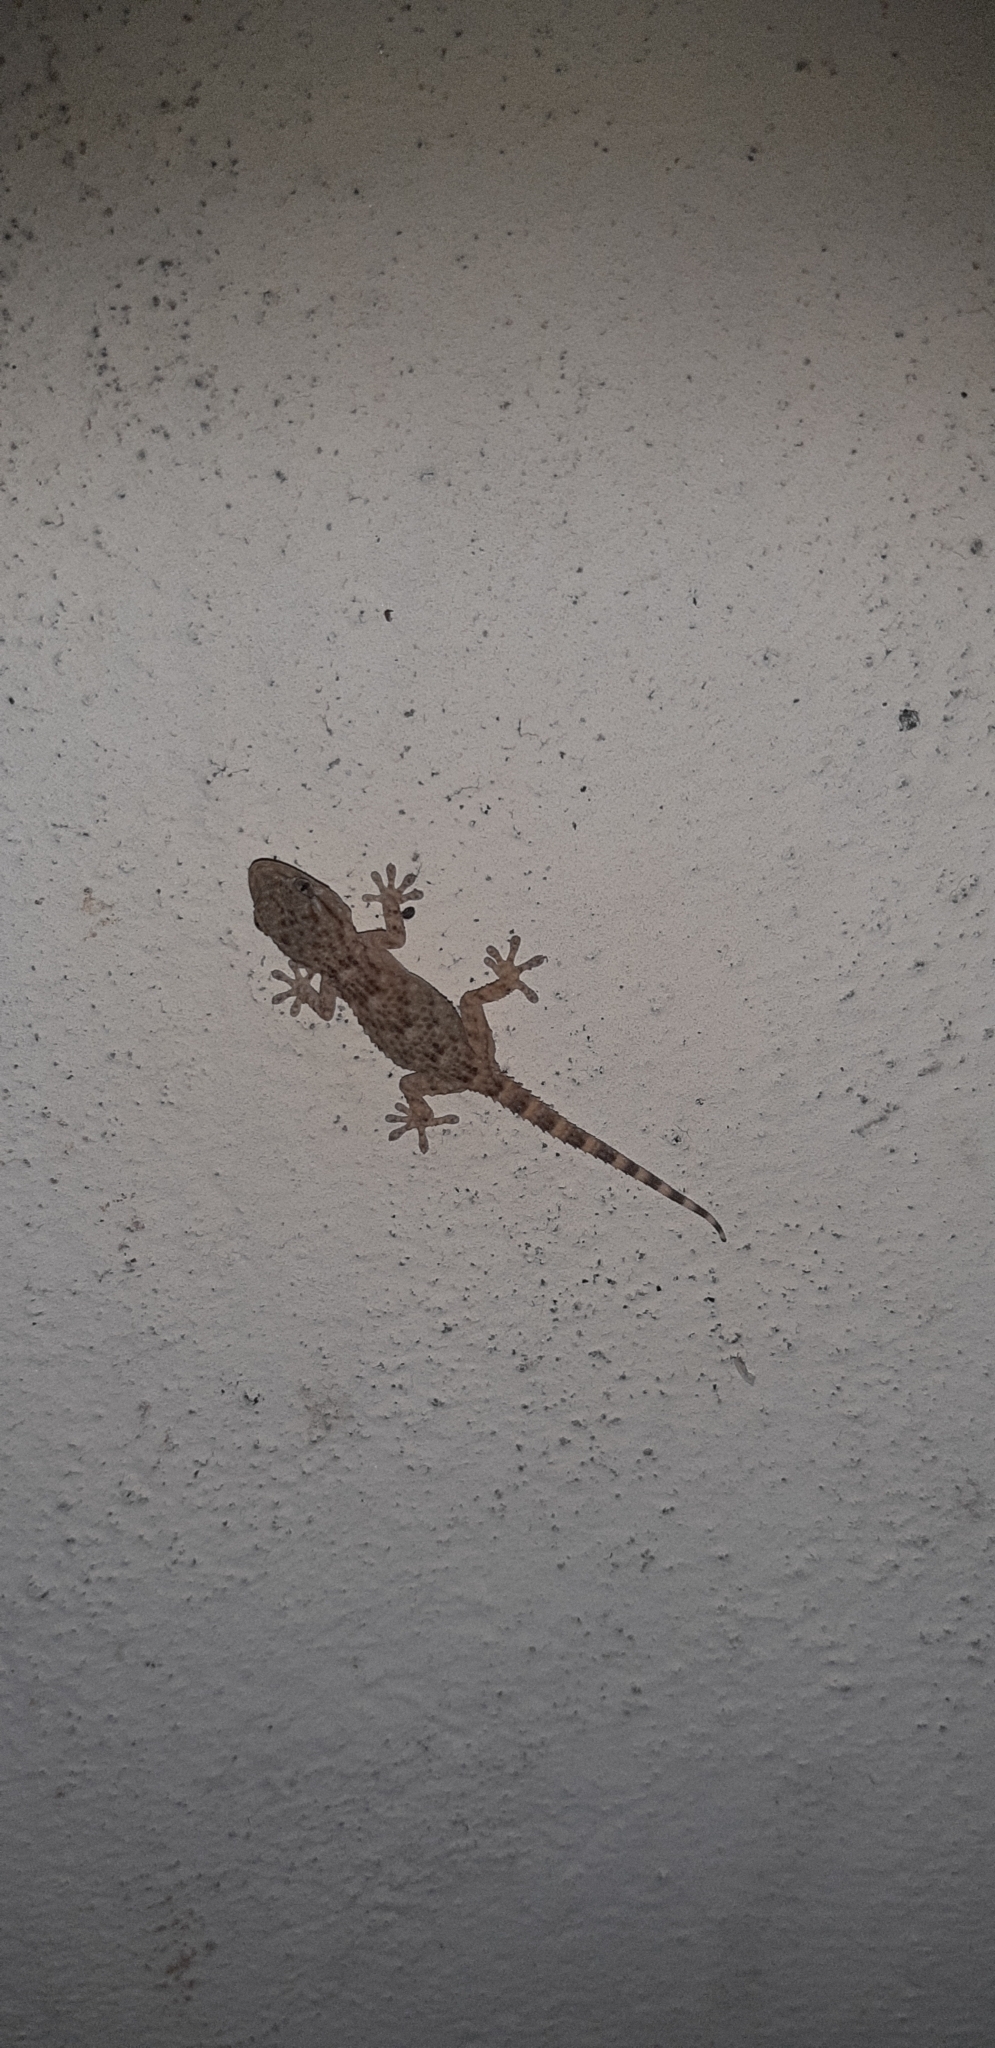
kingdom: Animalia
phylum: Chordata
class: Squamata
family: Phyllodactylidae
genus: Tarentola
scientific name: Tarentola mauritanica
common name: Moorish gecko
